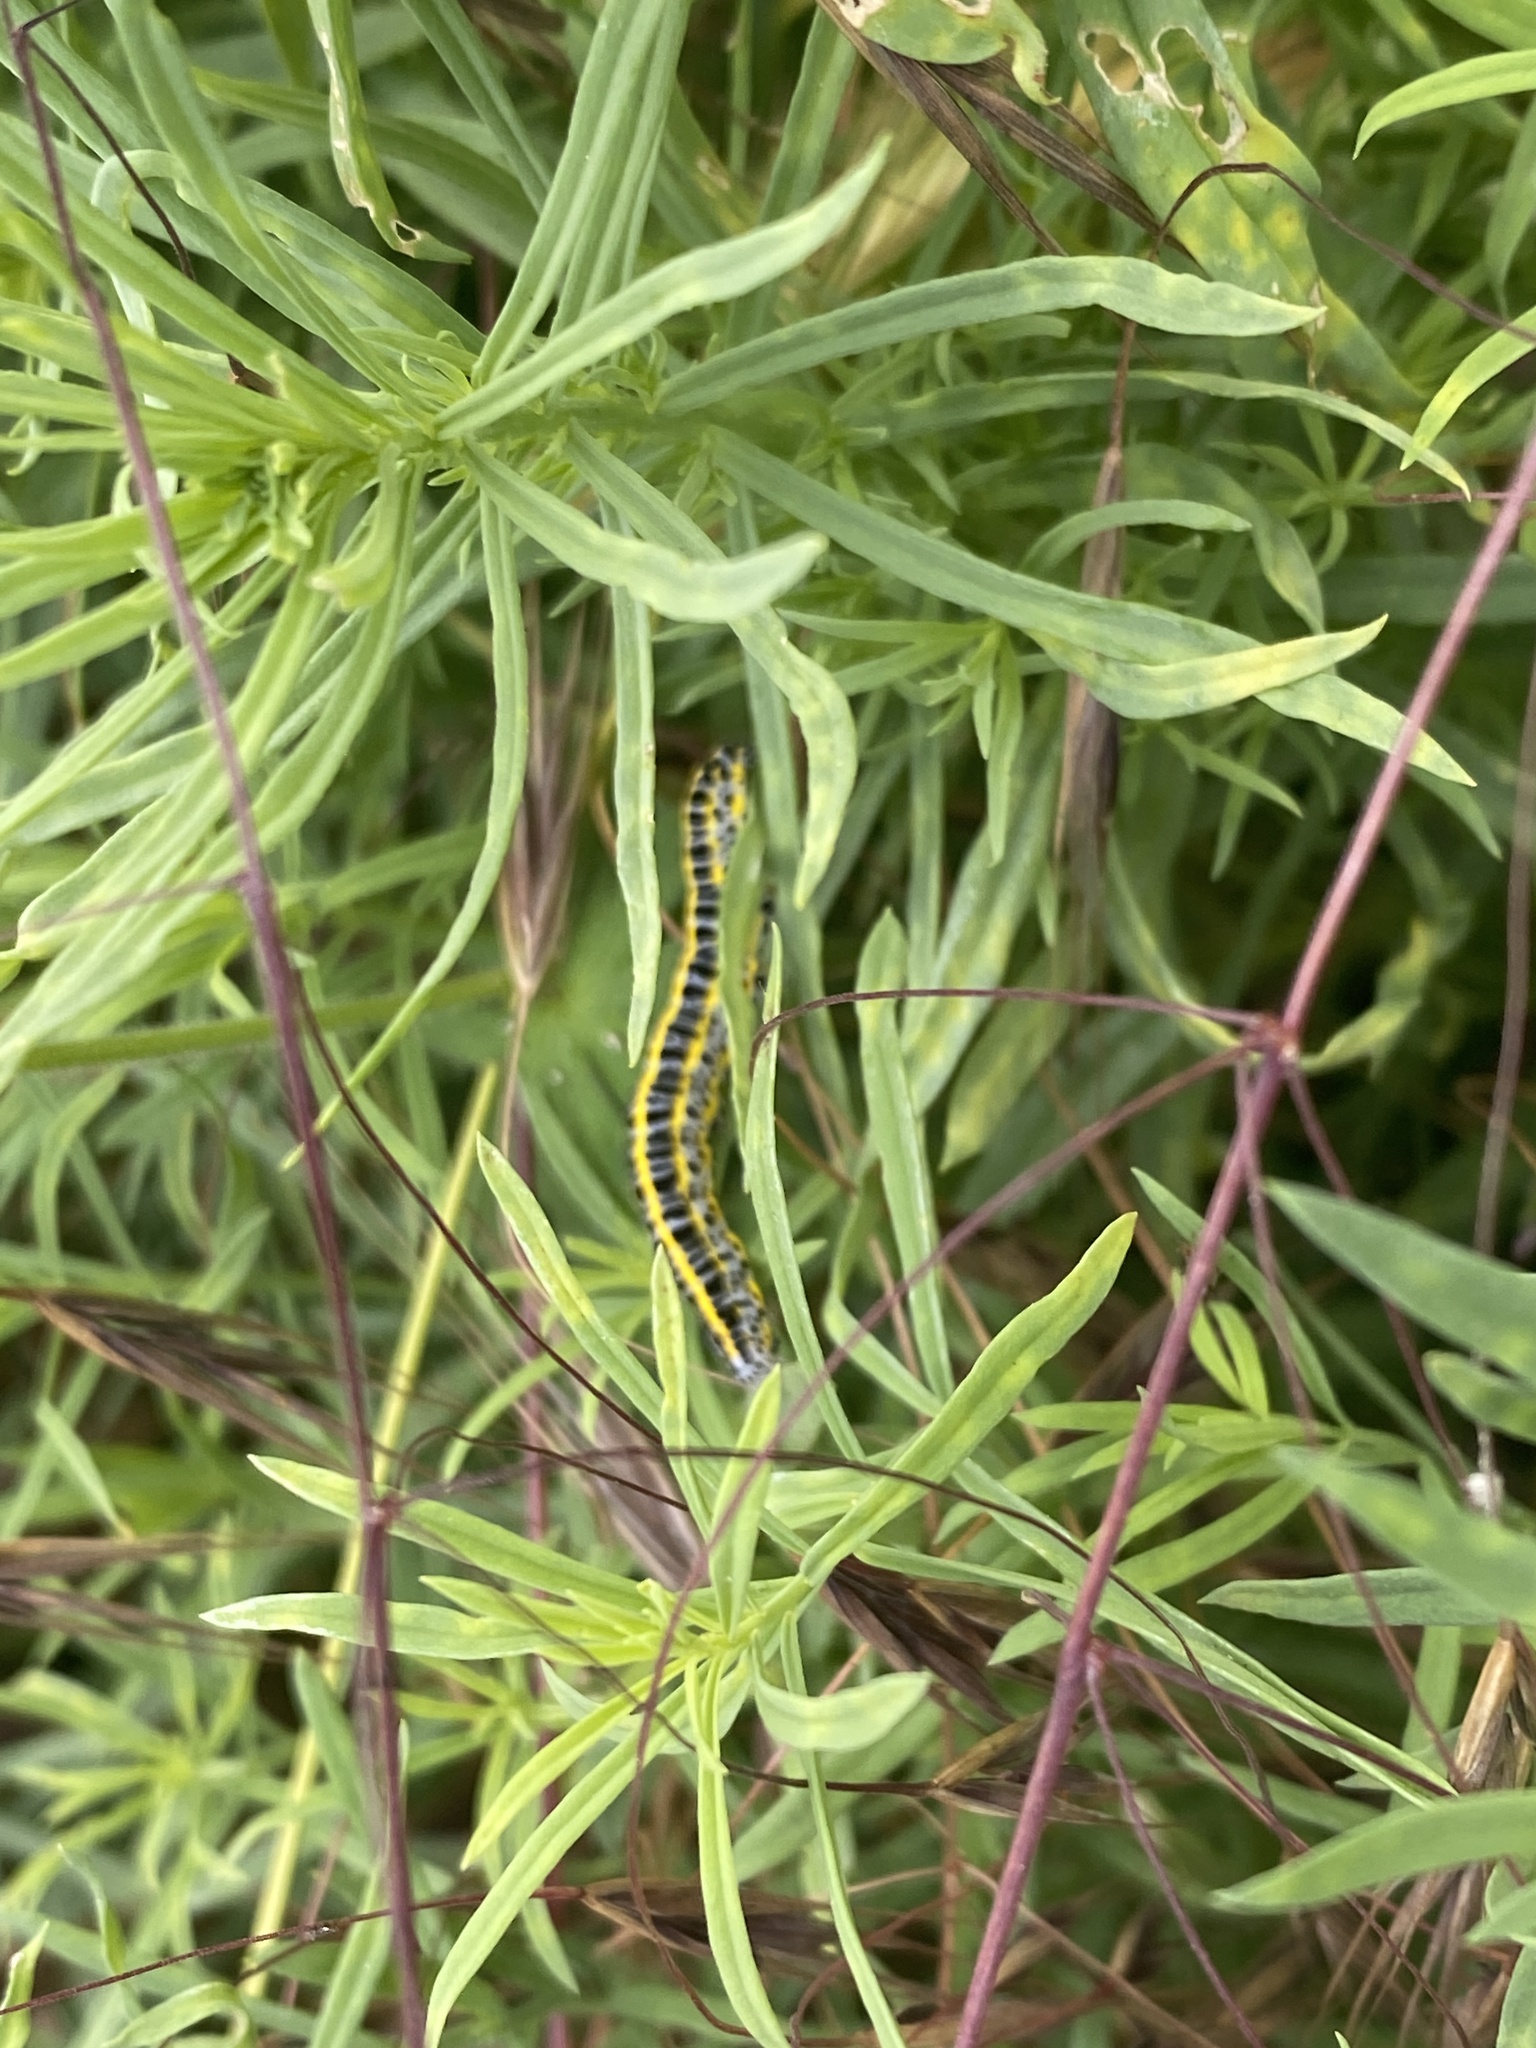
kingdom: Animalia
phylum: Arthropoda
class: Insecta
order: Lepidoptera
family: Noctuidae
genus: Calophasia
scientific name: Calophasia lunula
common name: Toadflax brocade
